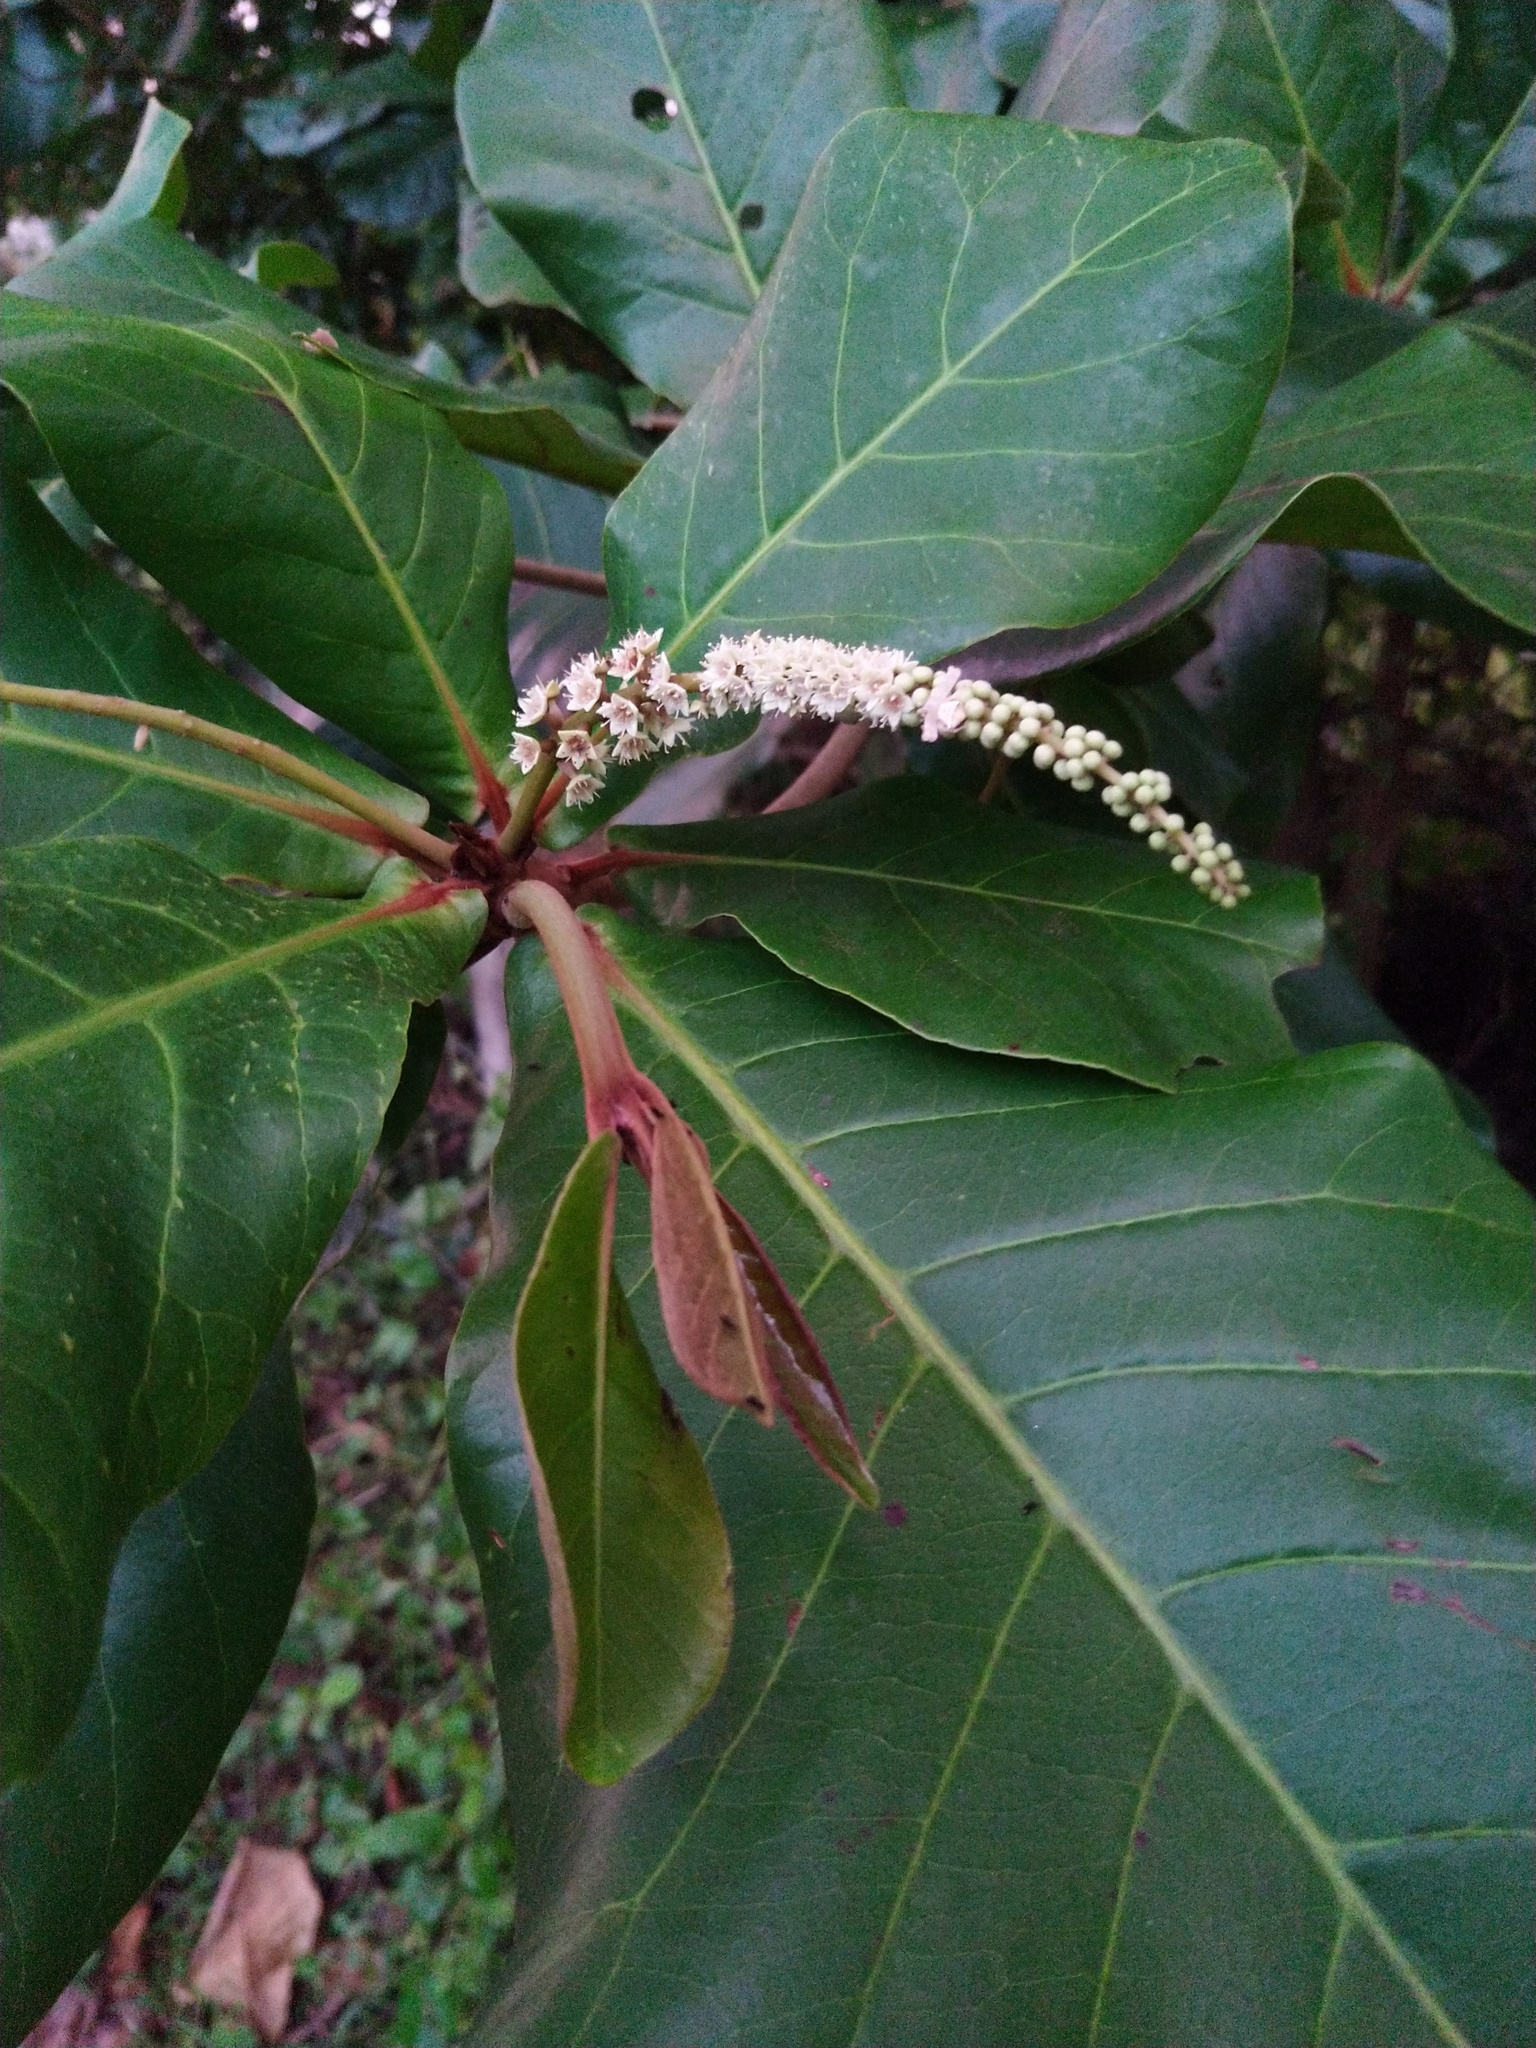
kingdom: Plantae
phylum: Tracheophyta
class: Magnoliopsida
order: Myrtales
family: Combretaceae
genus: Terminalia
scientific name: Terminalia catappa
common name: Tropical almond
